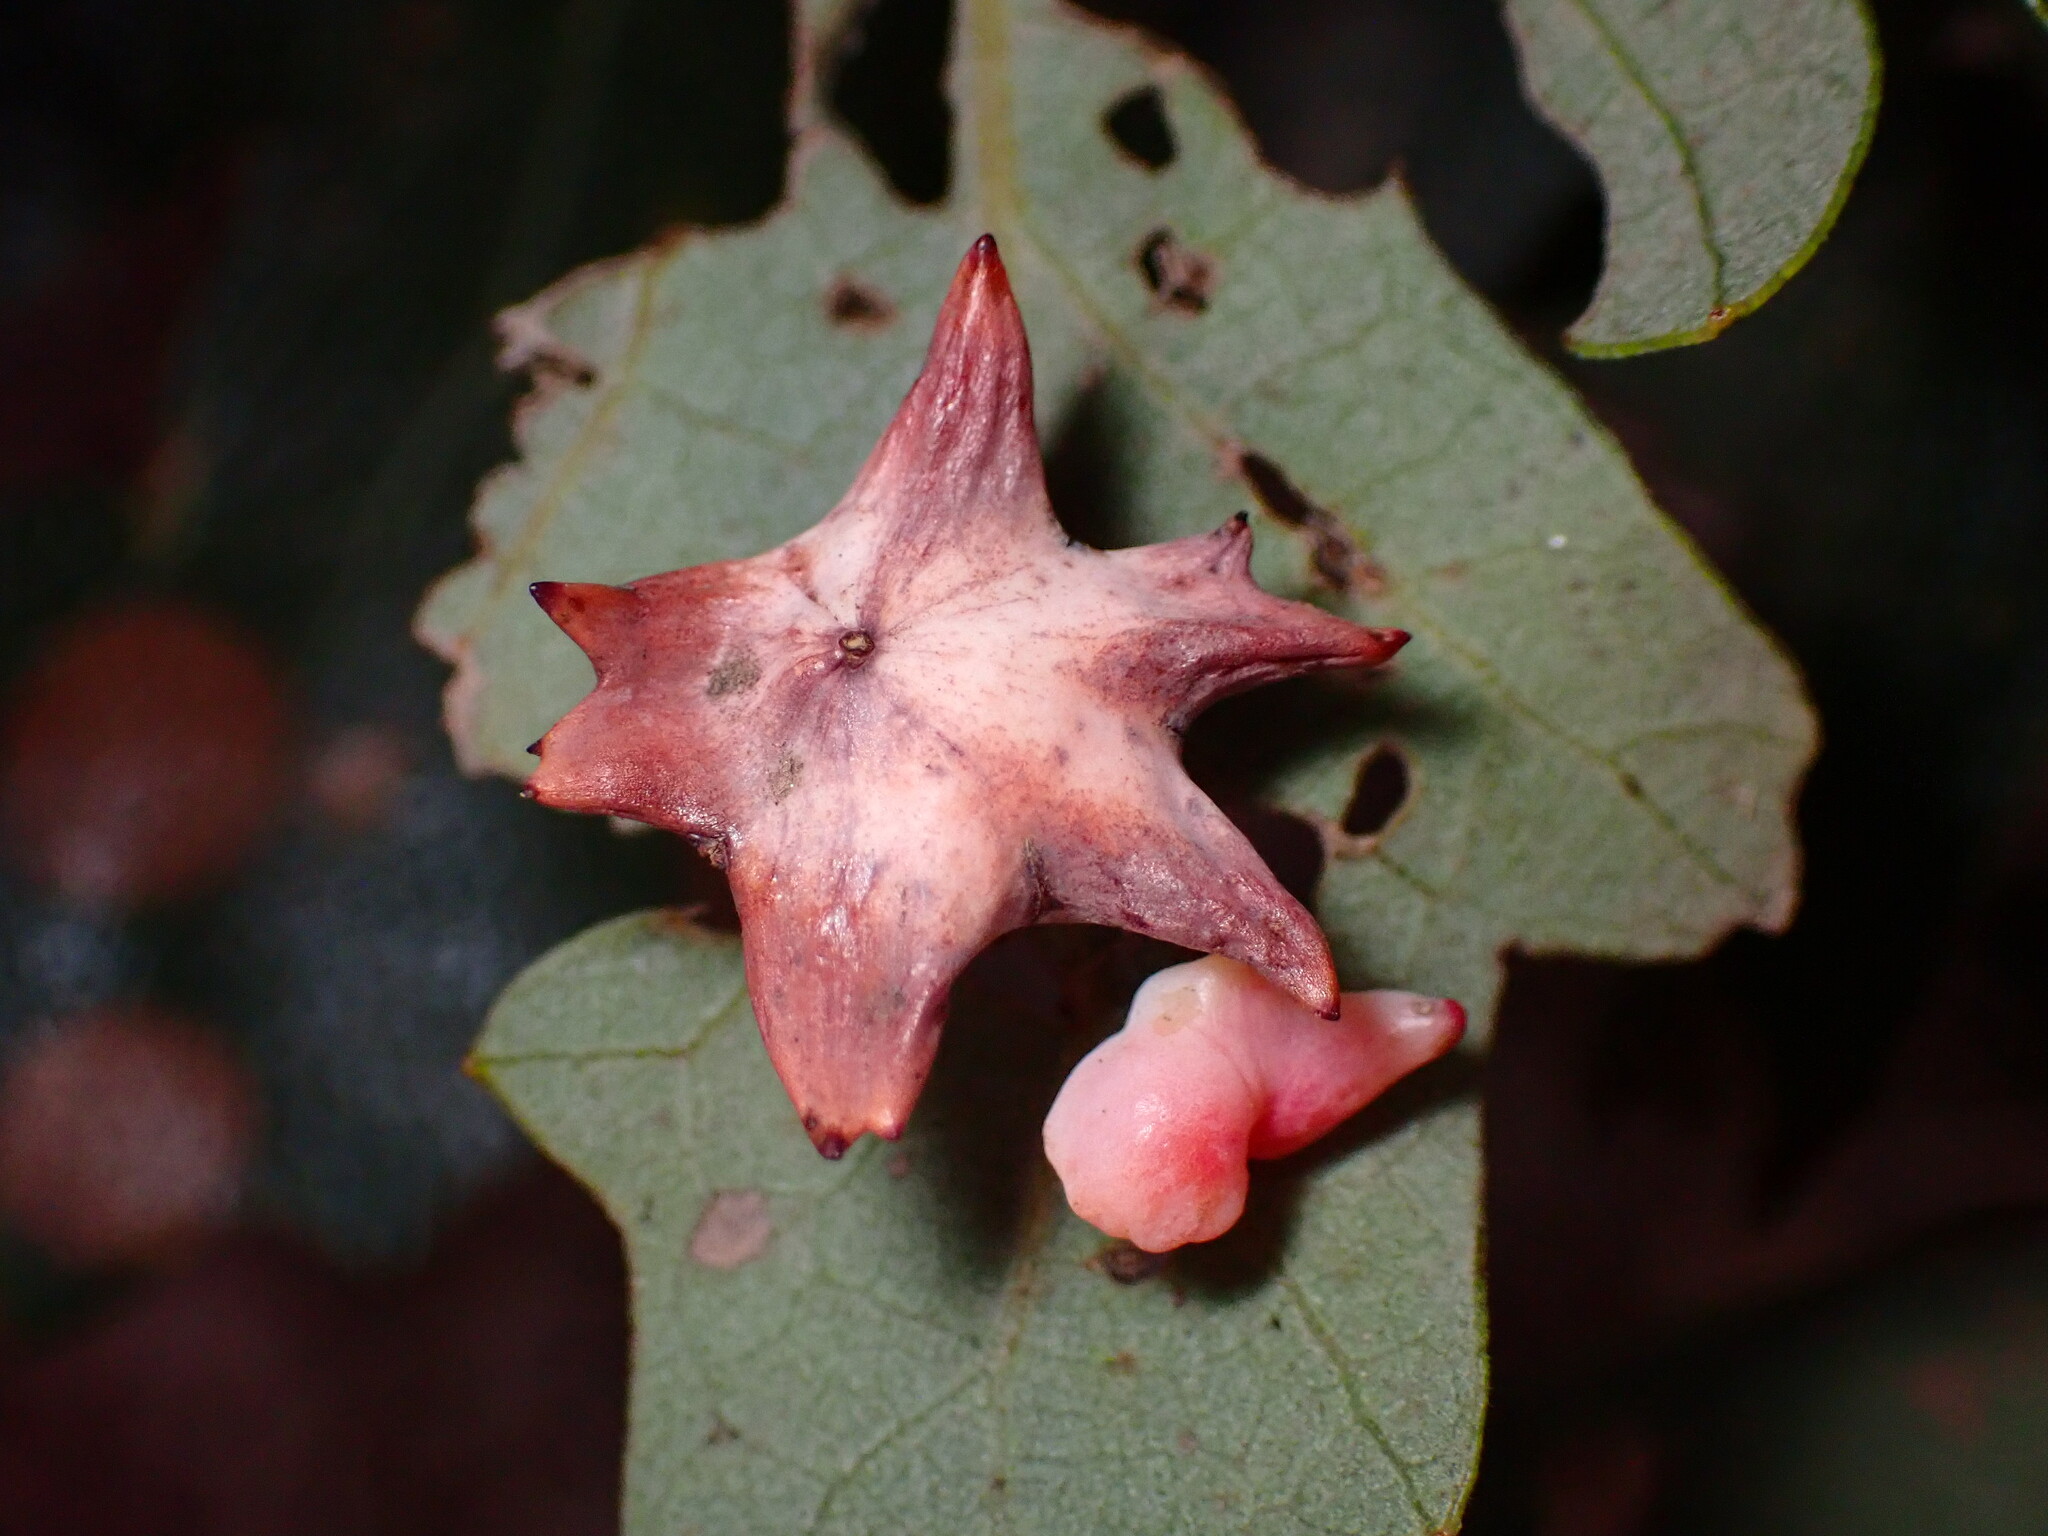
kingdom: Animalia
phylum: Arthropoda
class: Insecta
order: Hymenoptera
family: Cynipidae
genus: Cynips
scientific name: Cynips douglasi
